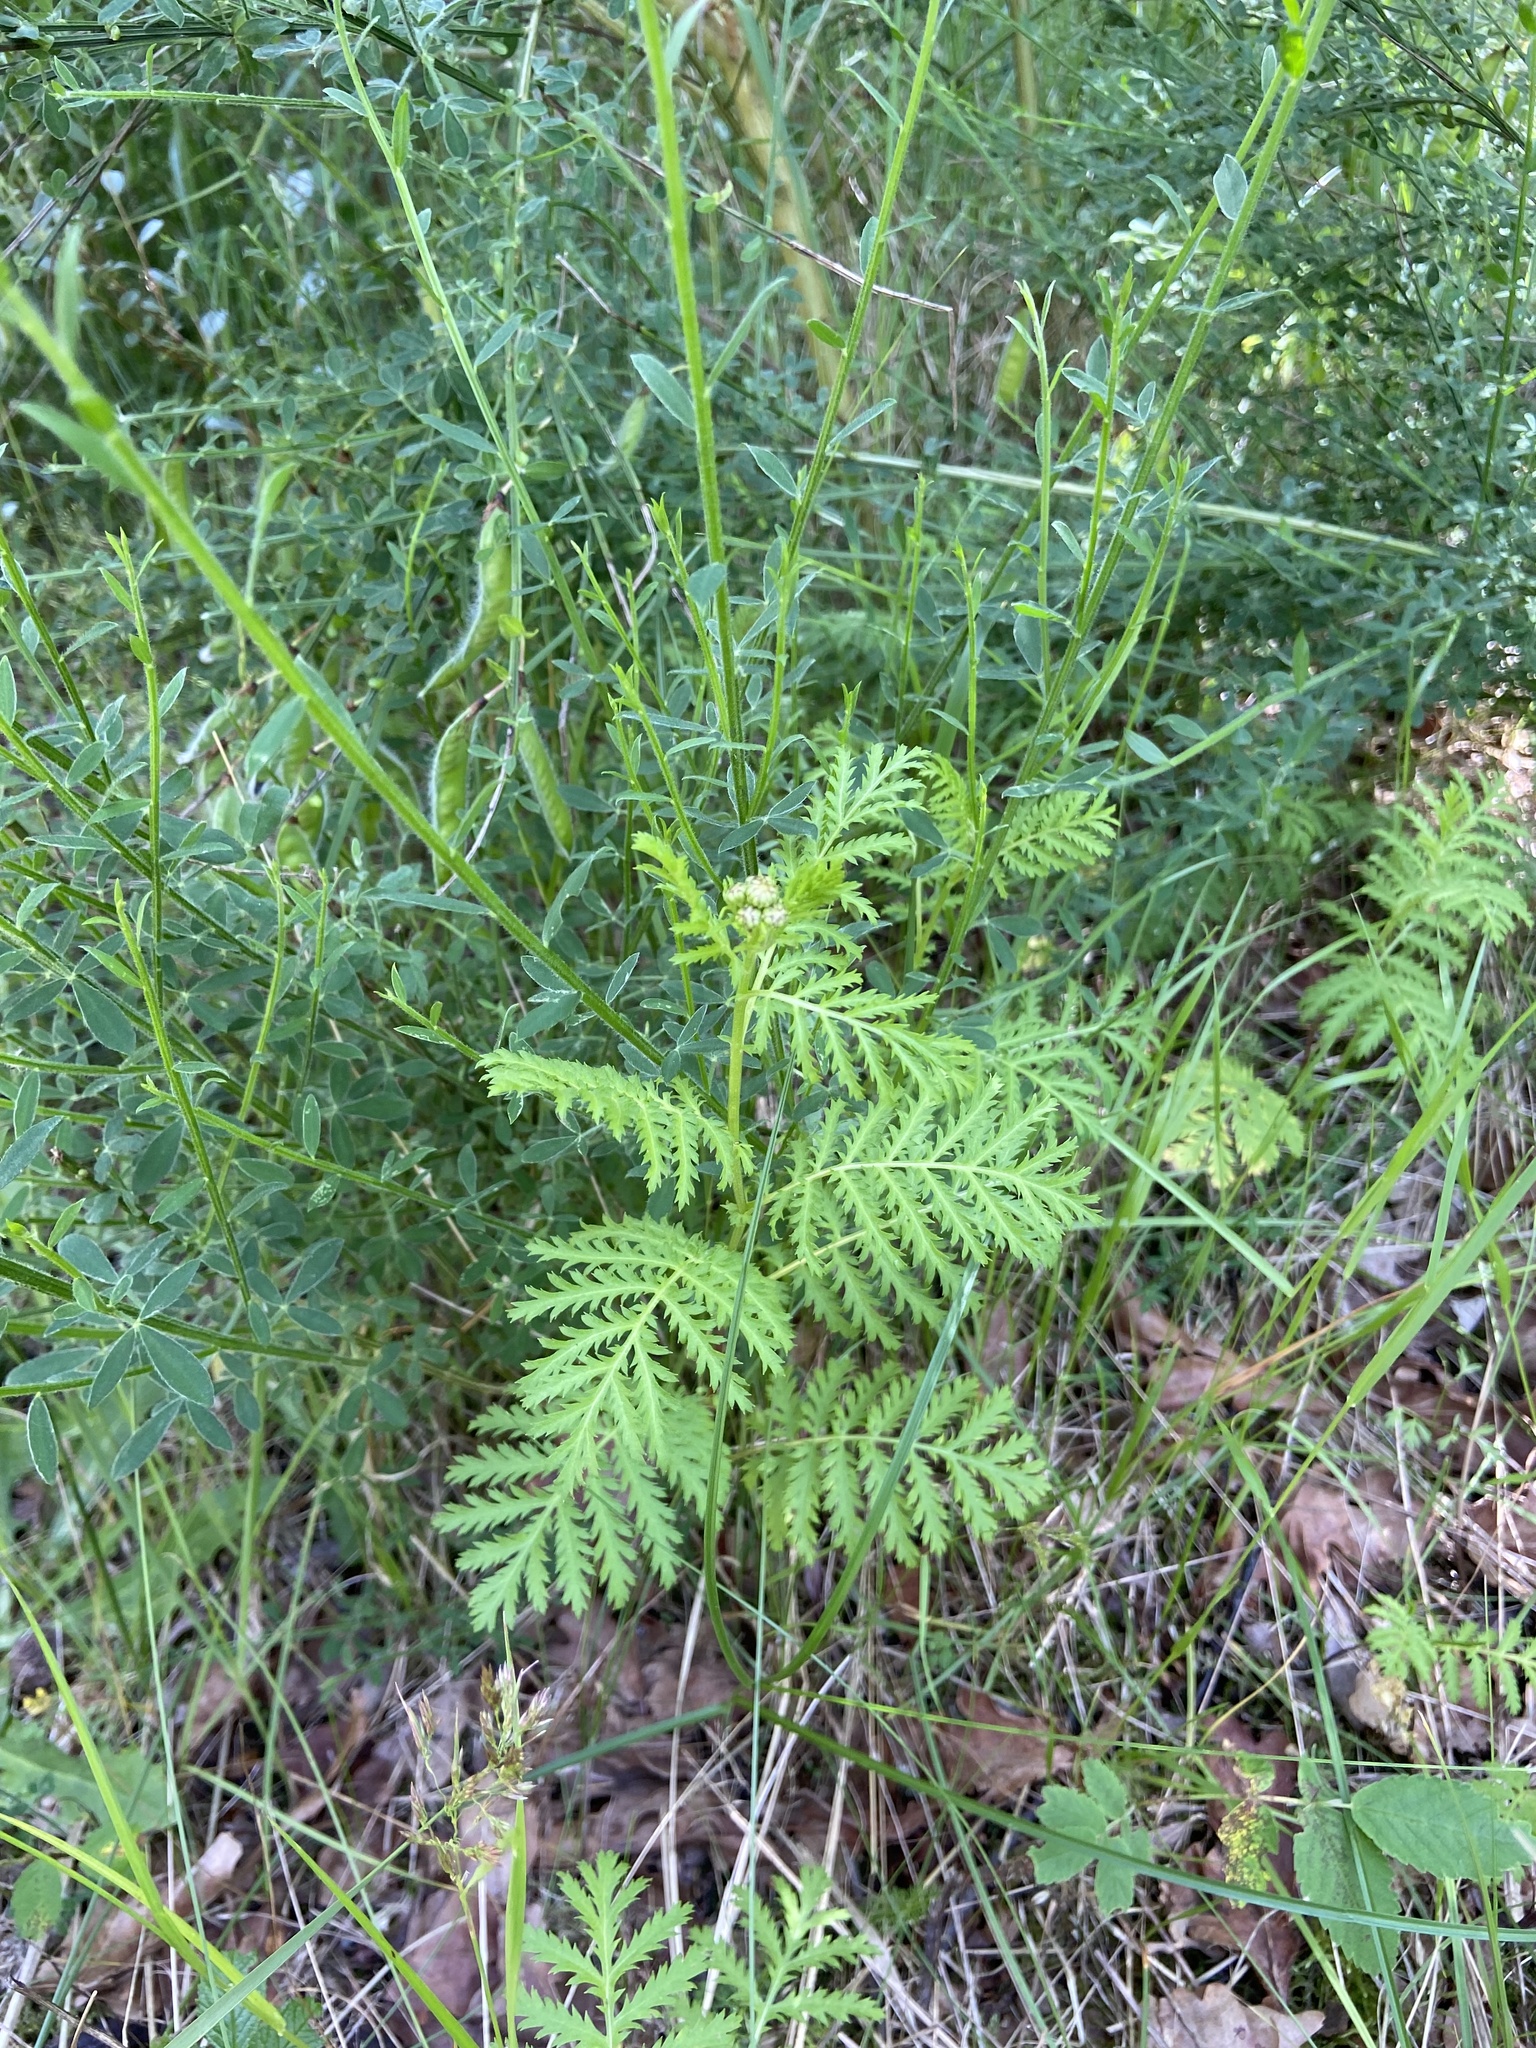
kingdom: Plantae
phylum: Tracheophyta
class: Magnoliopsida
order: Asterales
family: Asteraceae
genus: Tanacetum
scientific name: Tanacetum vulgare
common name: Common tansy
